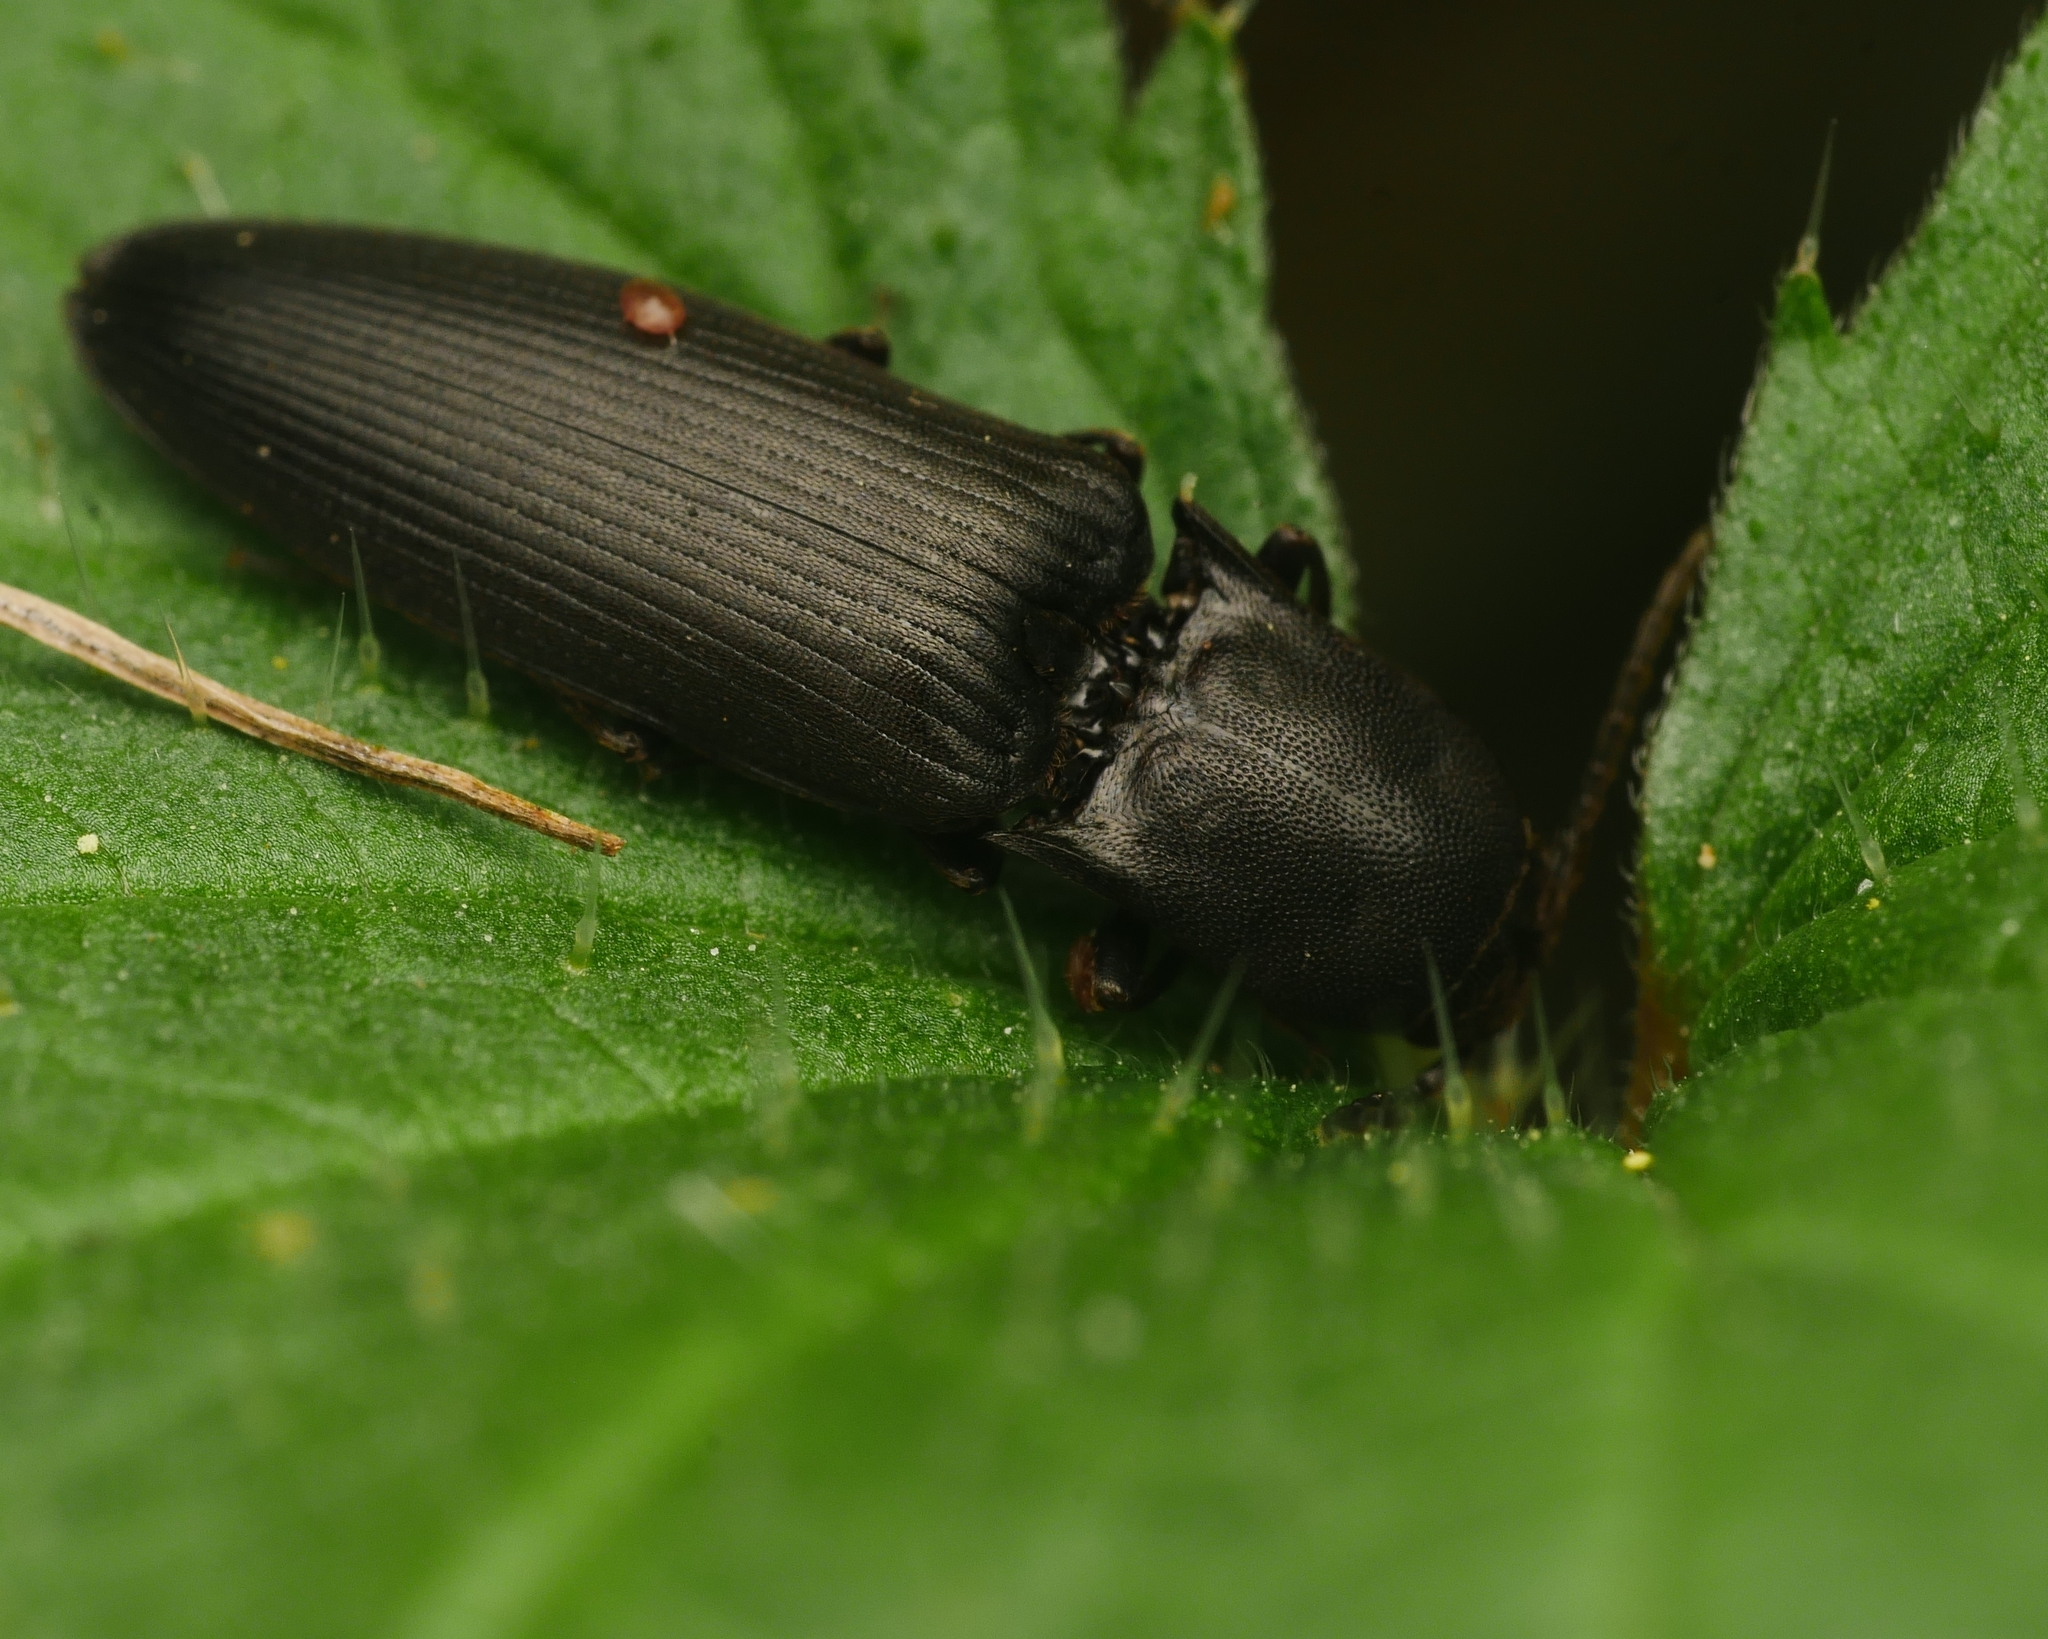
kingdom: Animalia
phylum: Arthropoda
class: Insecta
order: Coleoptera
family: Elateridae
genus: Ectinus
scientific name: Ectinus aterrimus
